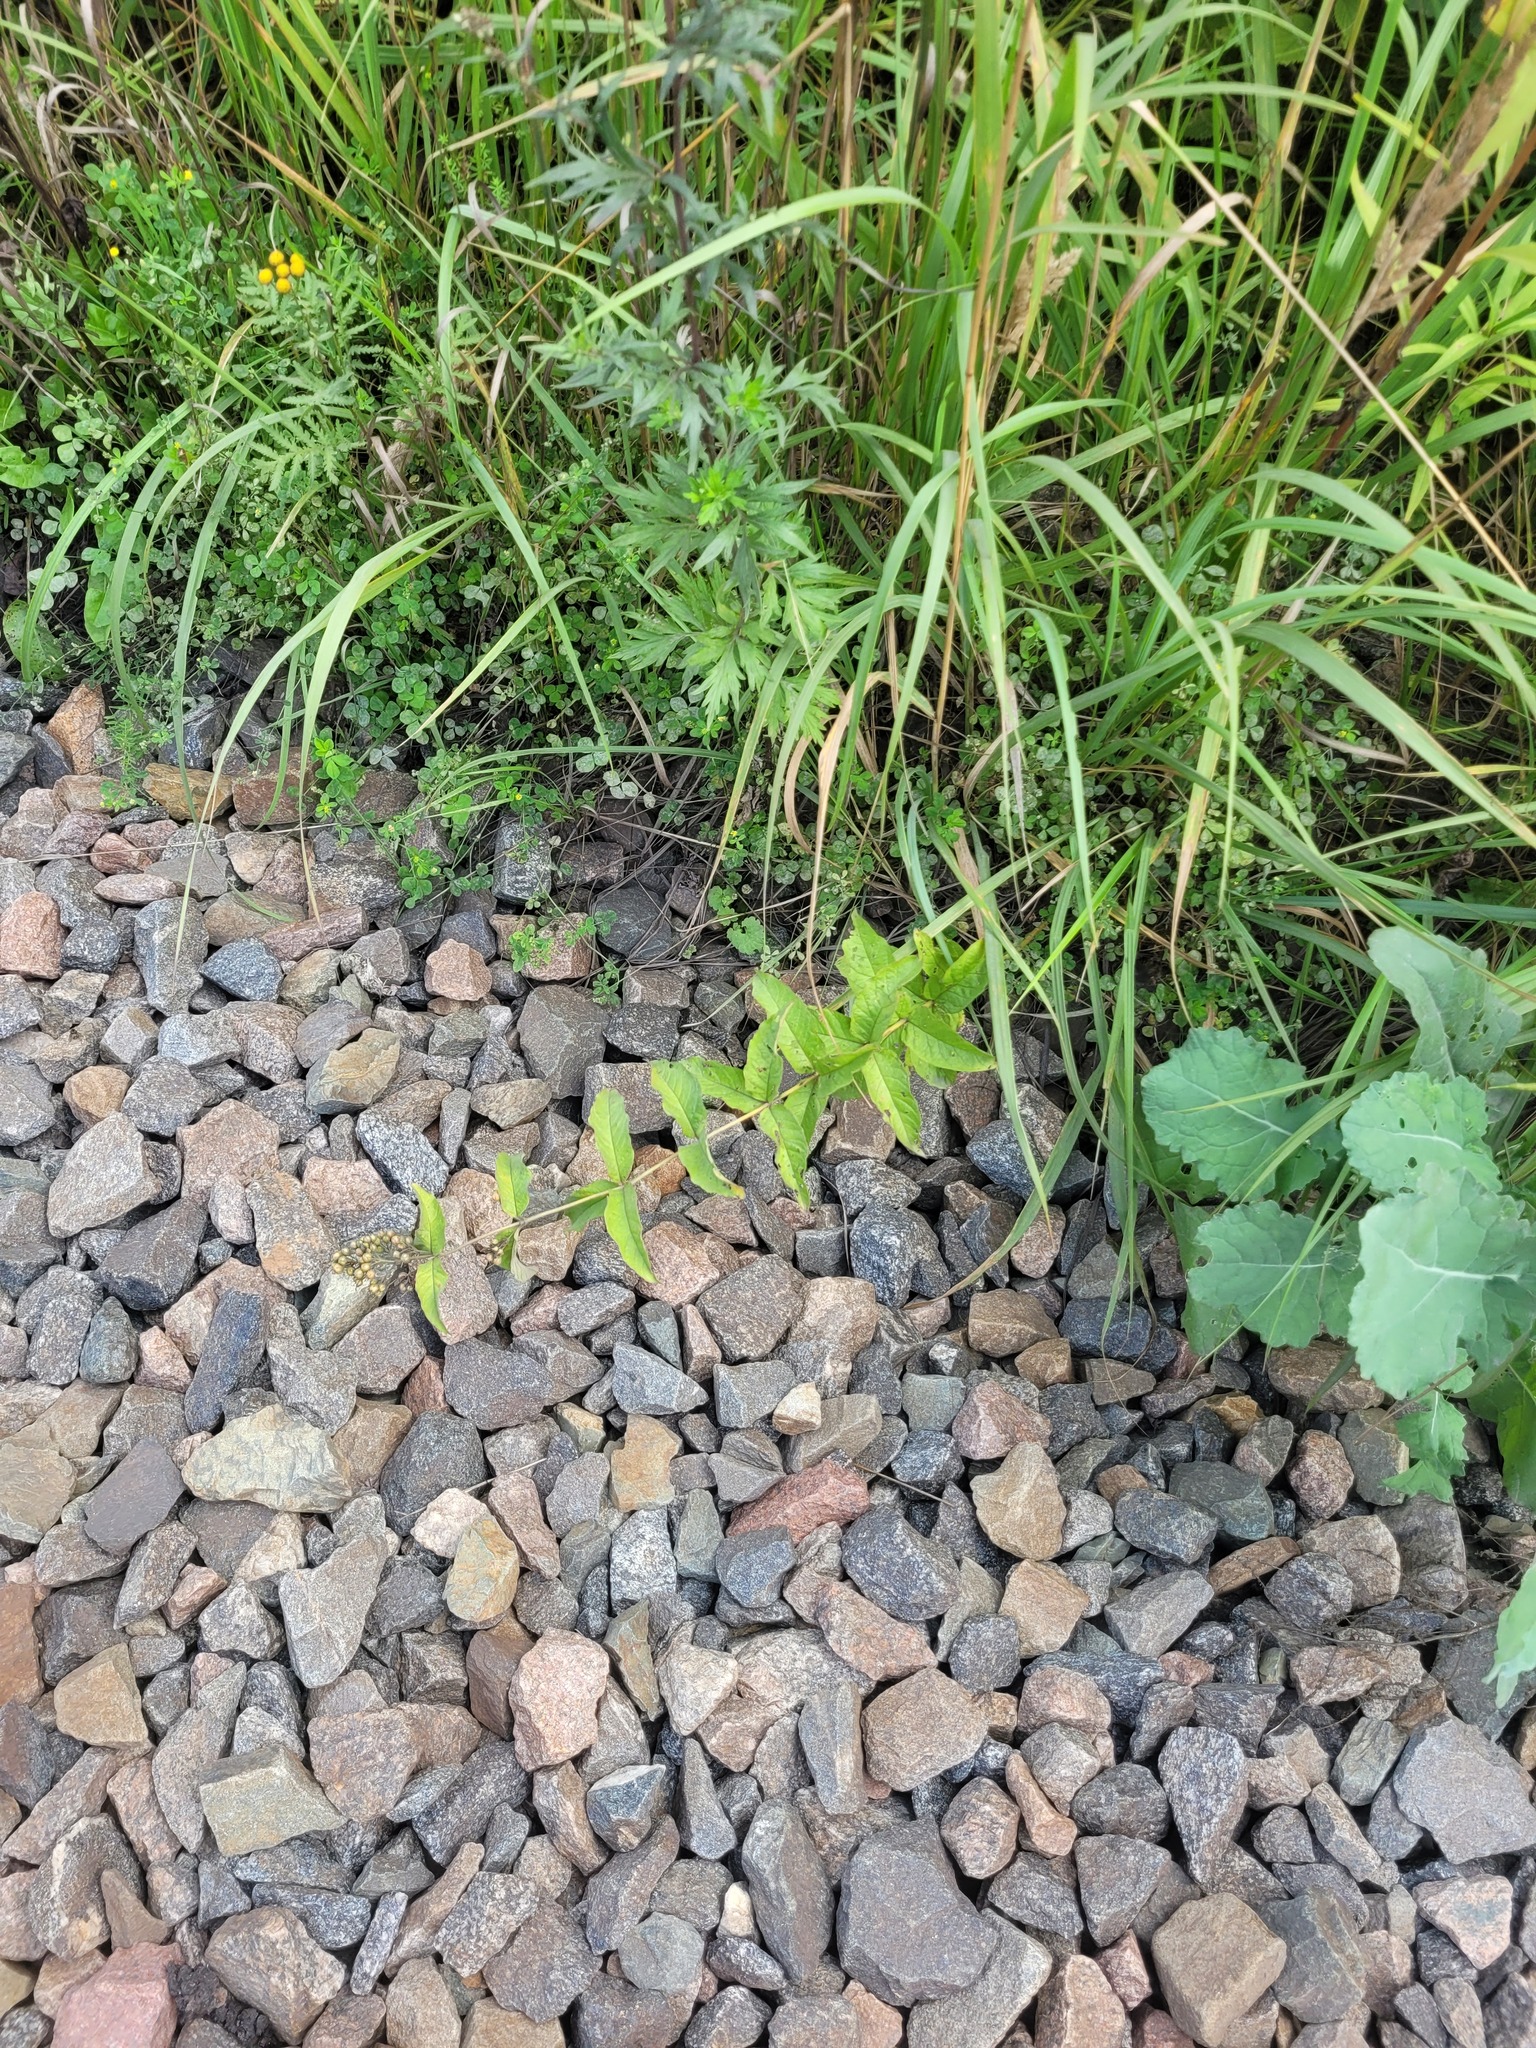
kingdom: Plantae
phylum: Tracheophyta
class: Magnoliopsida
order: Ericales
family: Primulaceae
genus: Lysimachia
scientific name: Lysimachia vulgaris
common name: Yellow loosestrife
